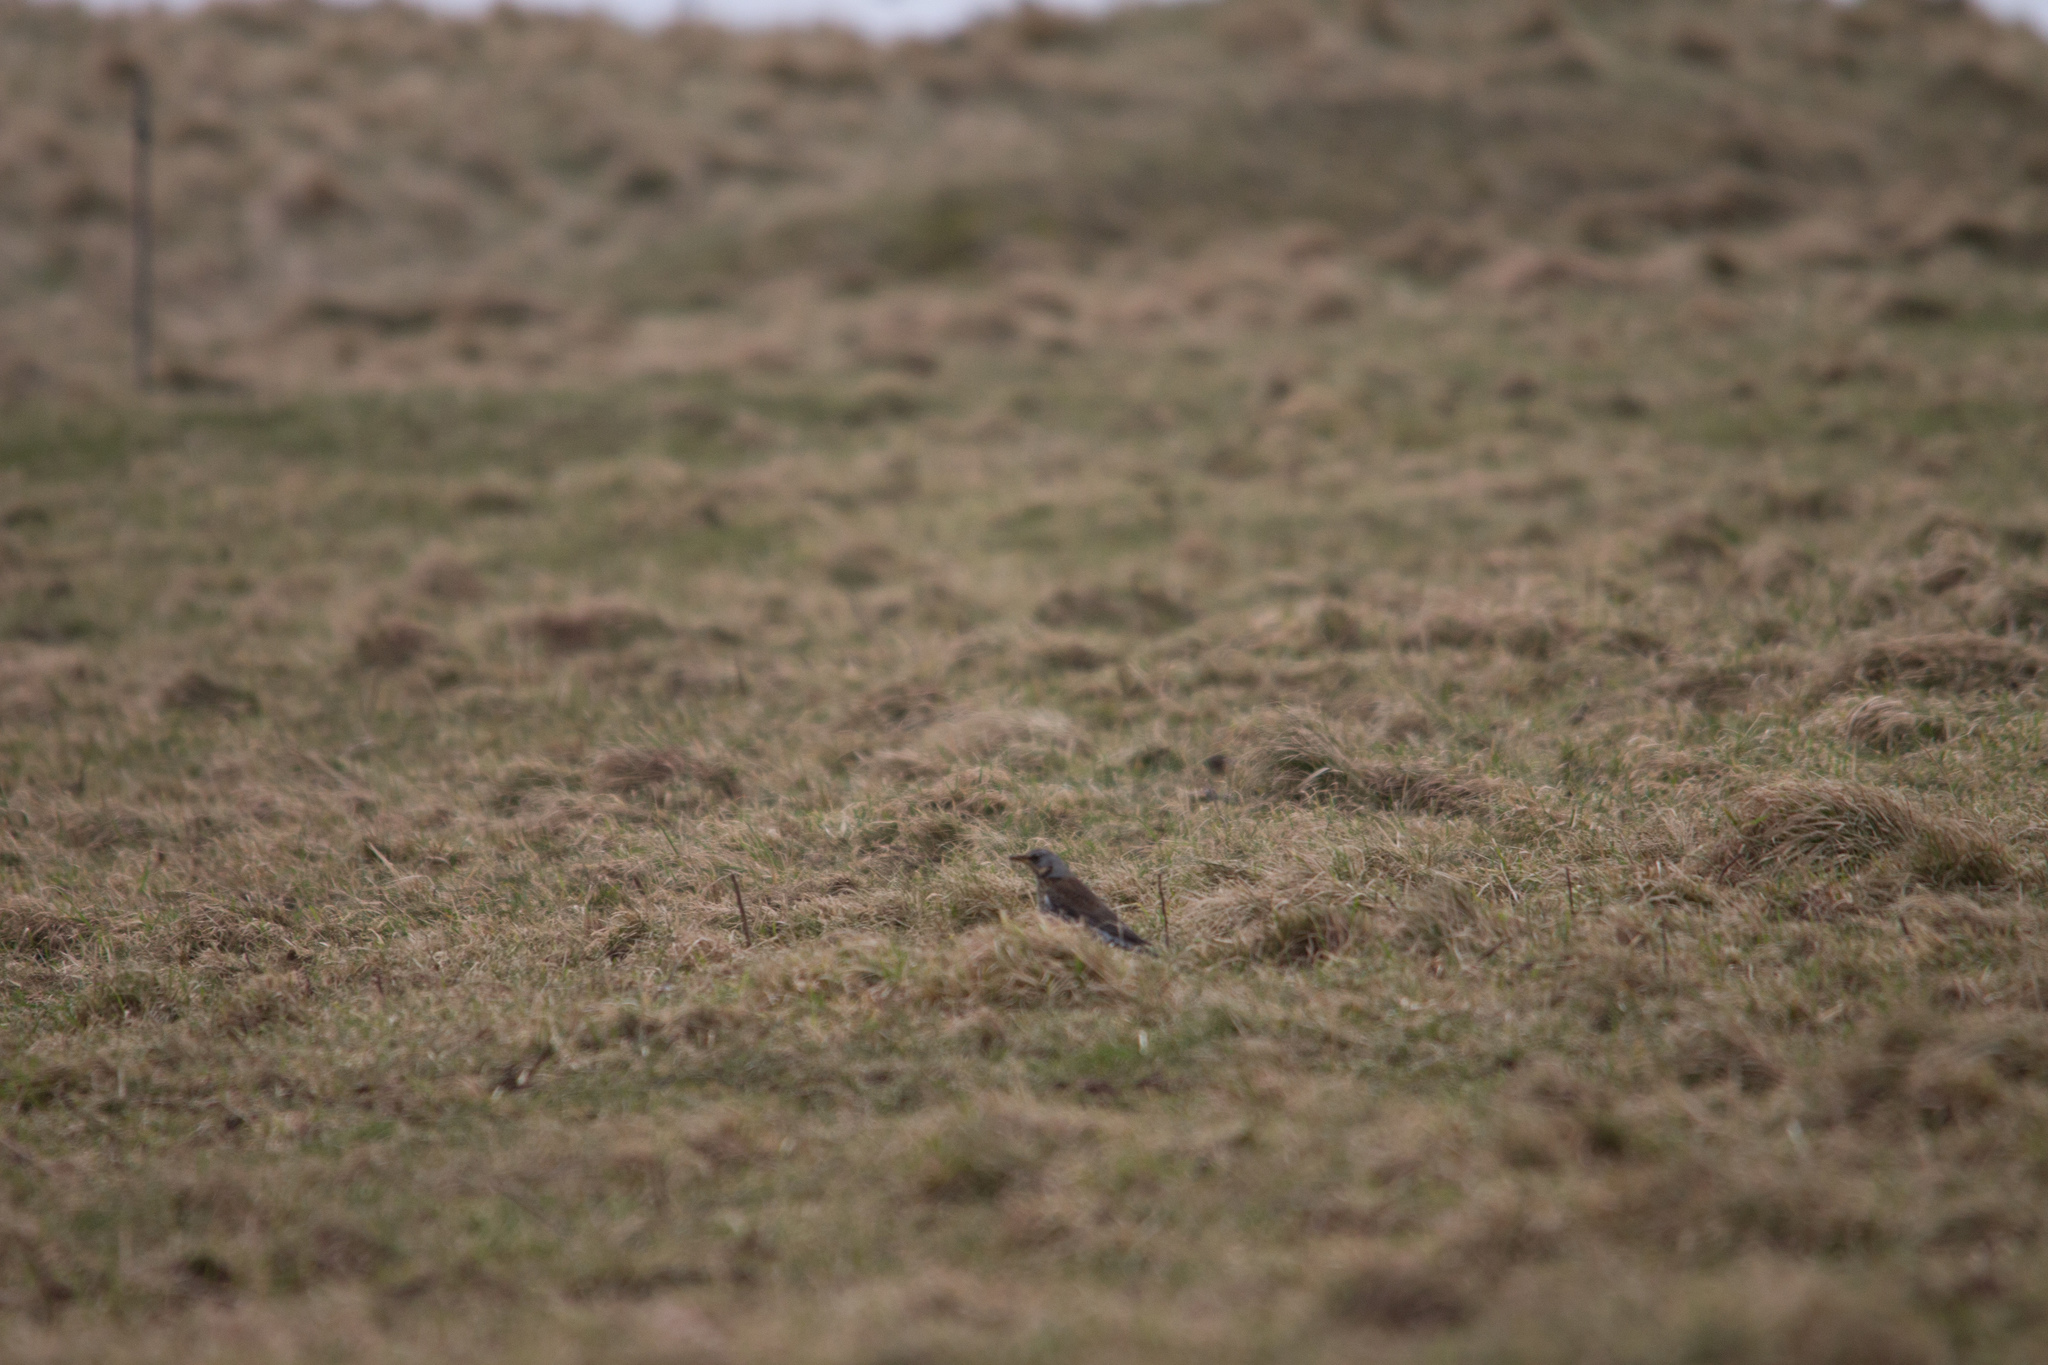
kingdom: Animalia
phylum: Chordata
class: Aves
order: Passeriformes
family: Turdidae
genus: Turdus
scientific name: Turdus pilaris
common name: Fieldfare
